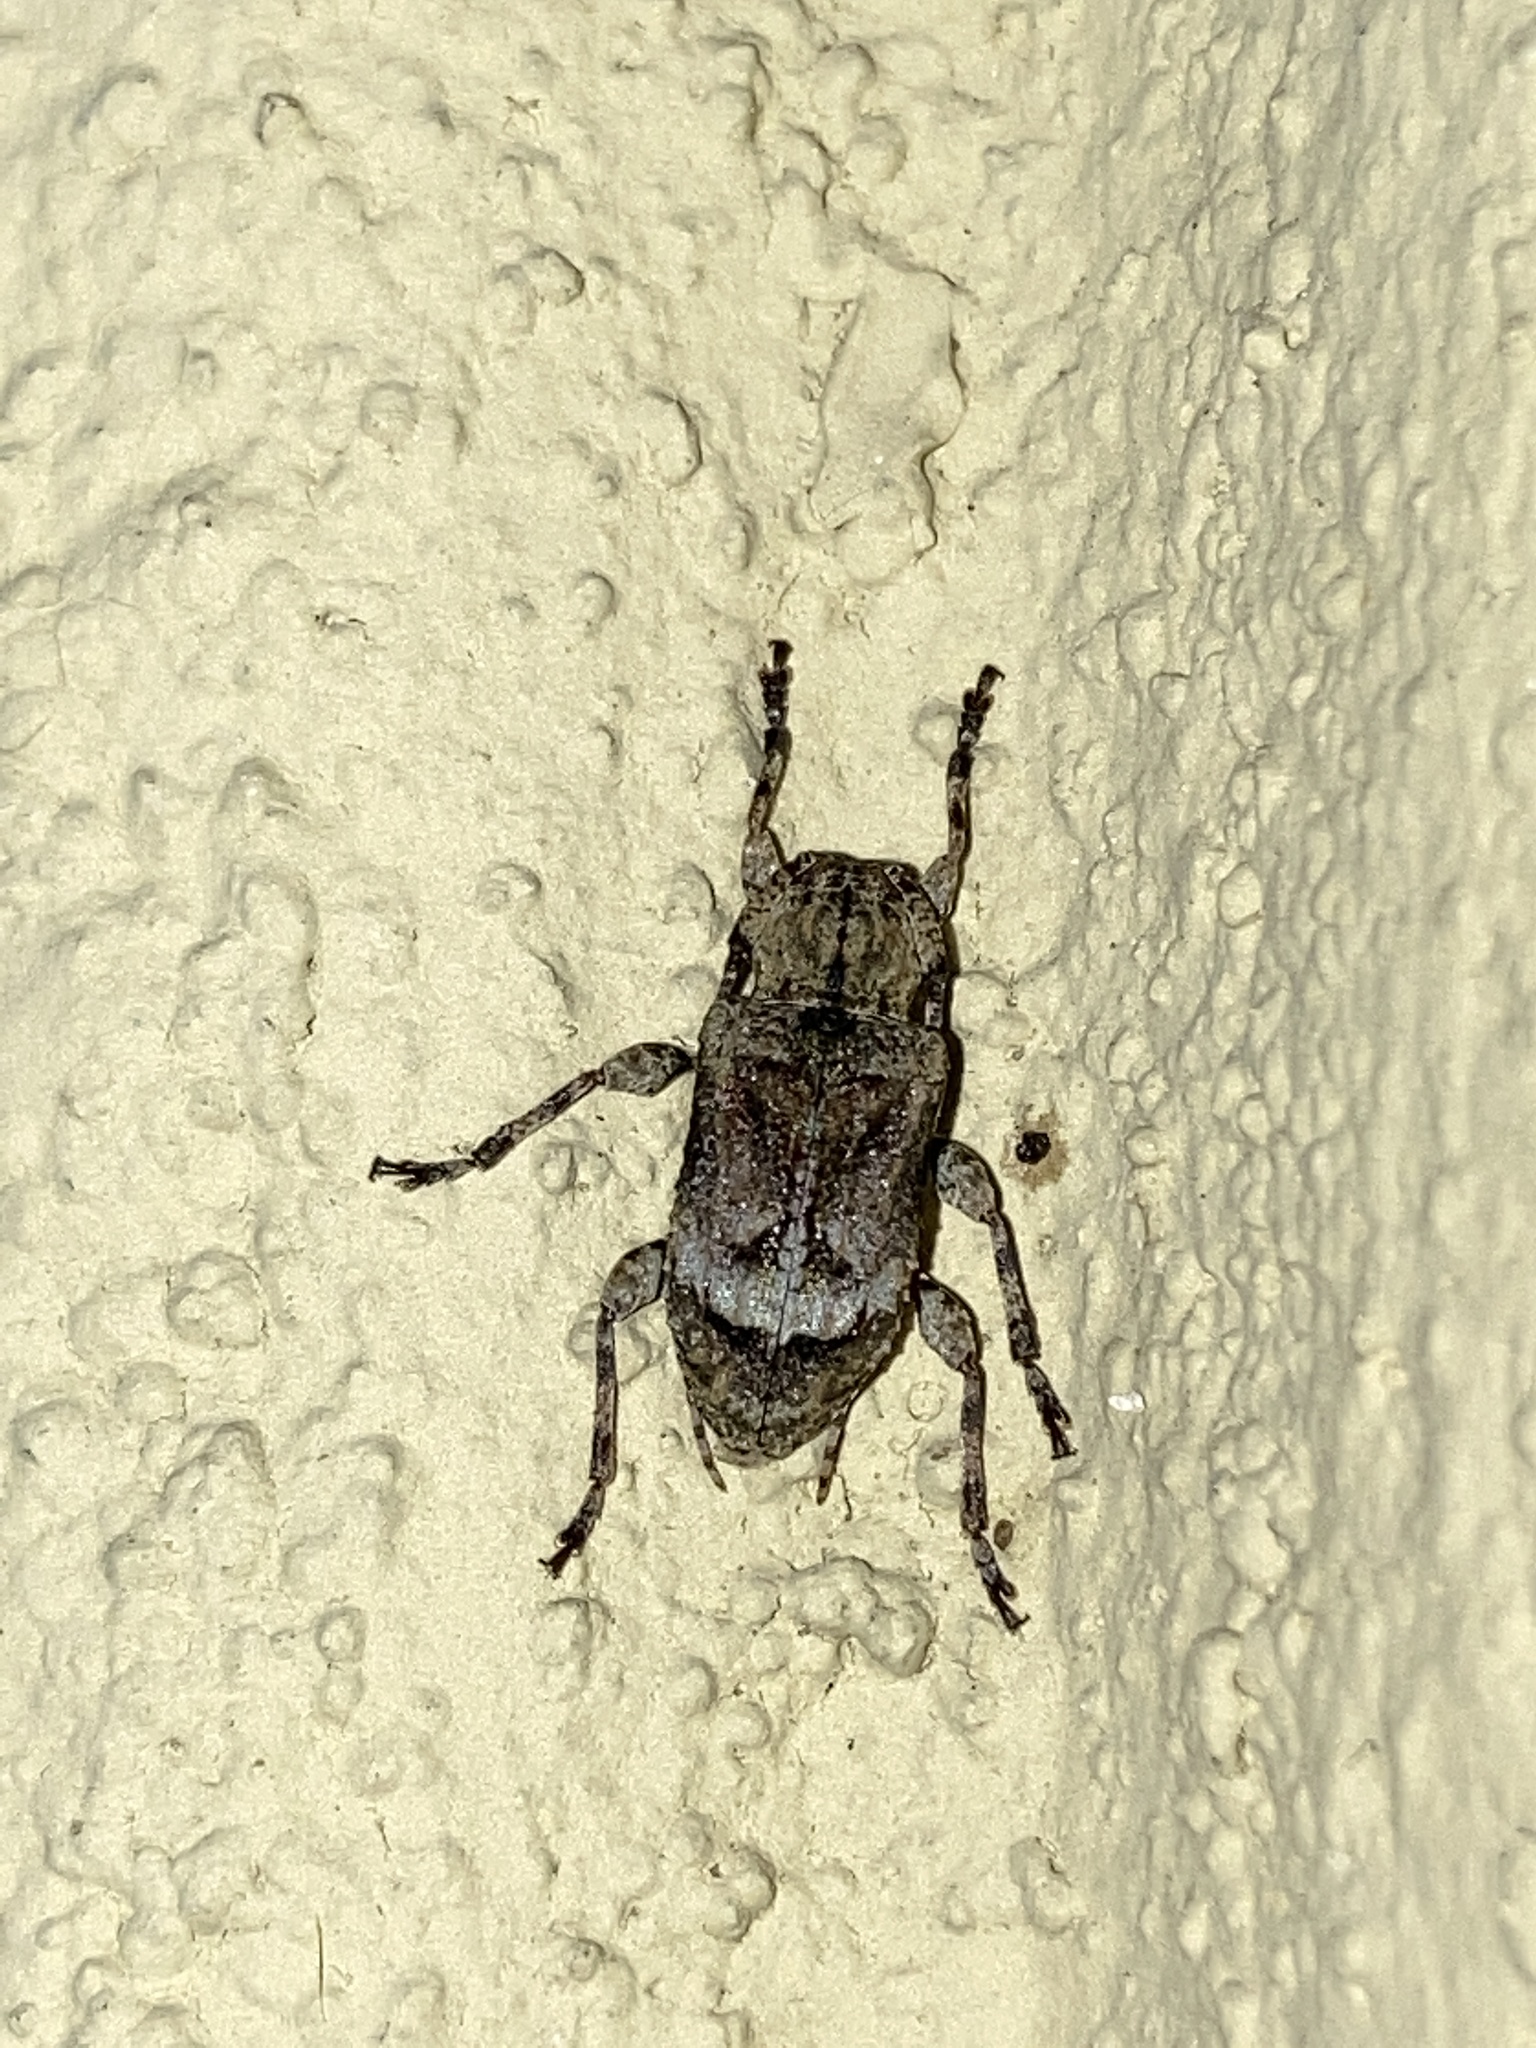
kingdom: Animalia
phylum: Arthropoda
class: Insecta
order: Coleoptera
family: Cerambycidae
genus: Leptostylus
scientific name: Leptostylus transversus
